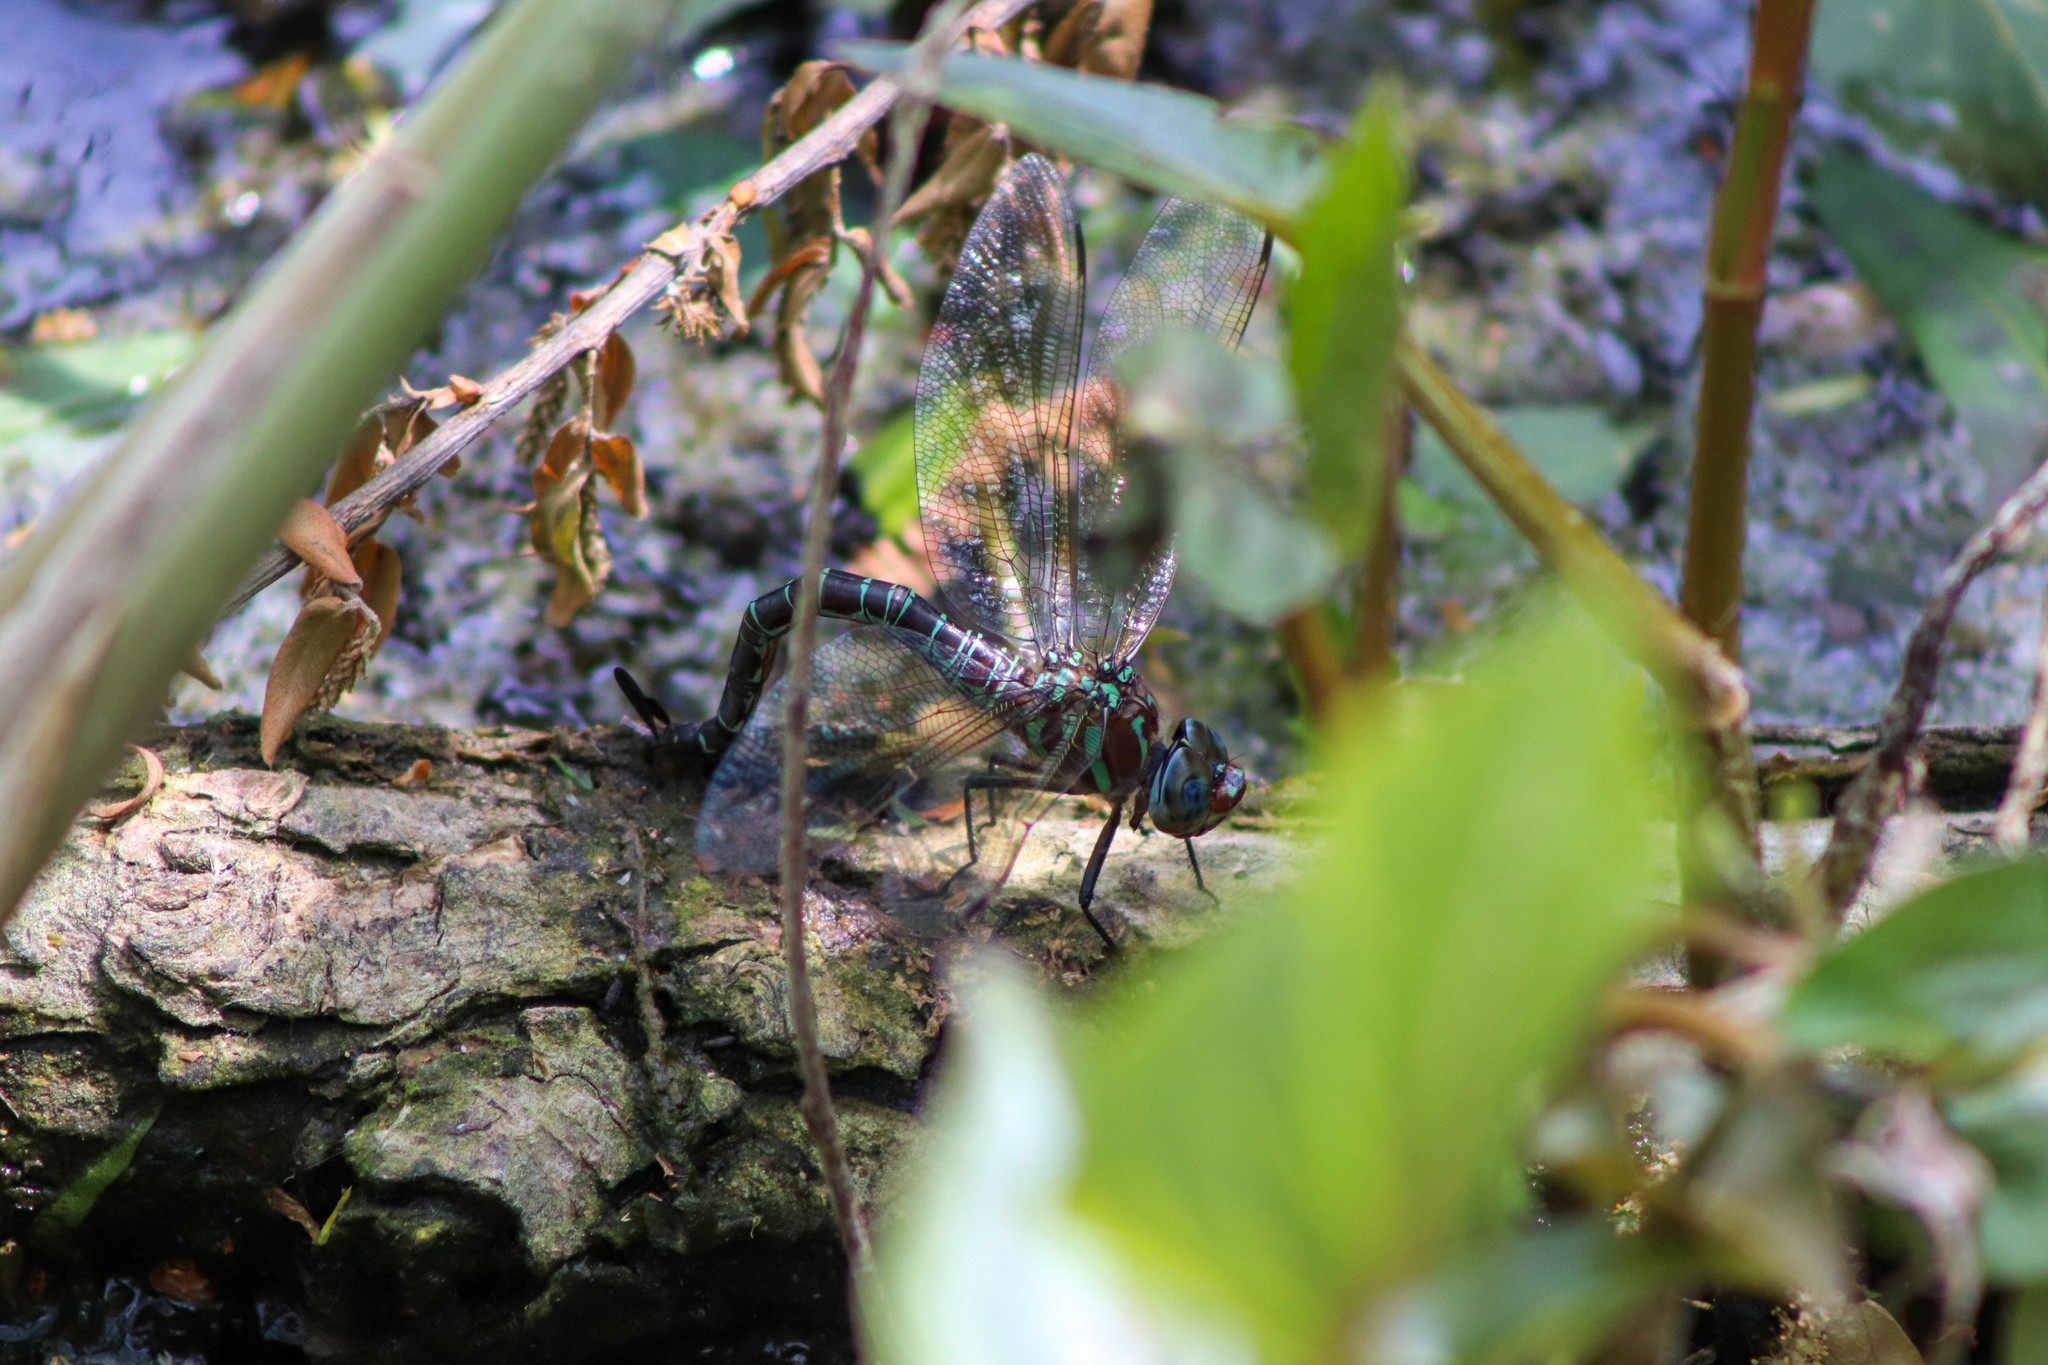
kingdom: Animalia
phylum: Arthropoda
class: Insecta
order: Odonata
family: Aeshnidae
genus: Epiaeschna
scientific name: Epiaeschna heros
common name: Swamp darner
